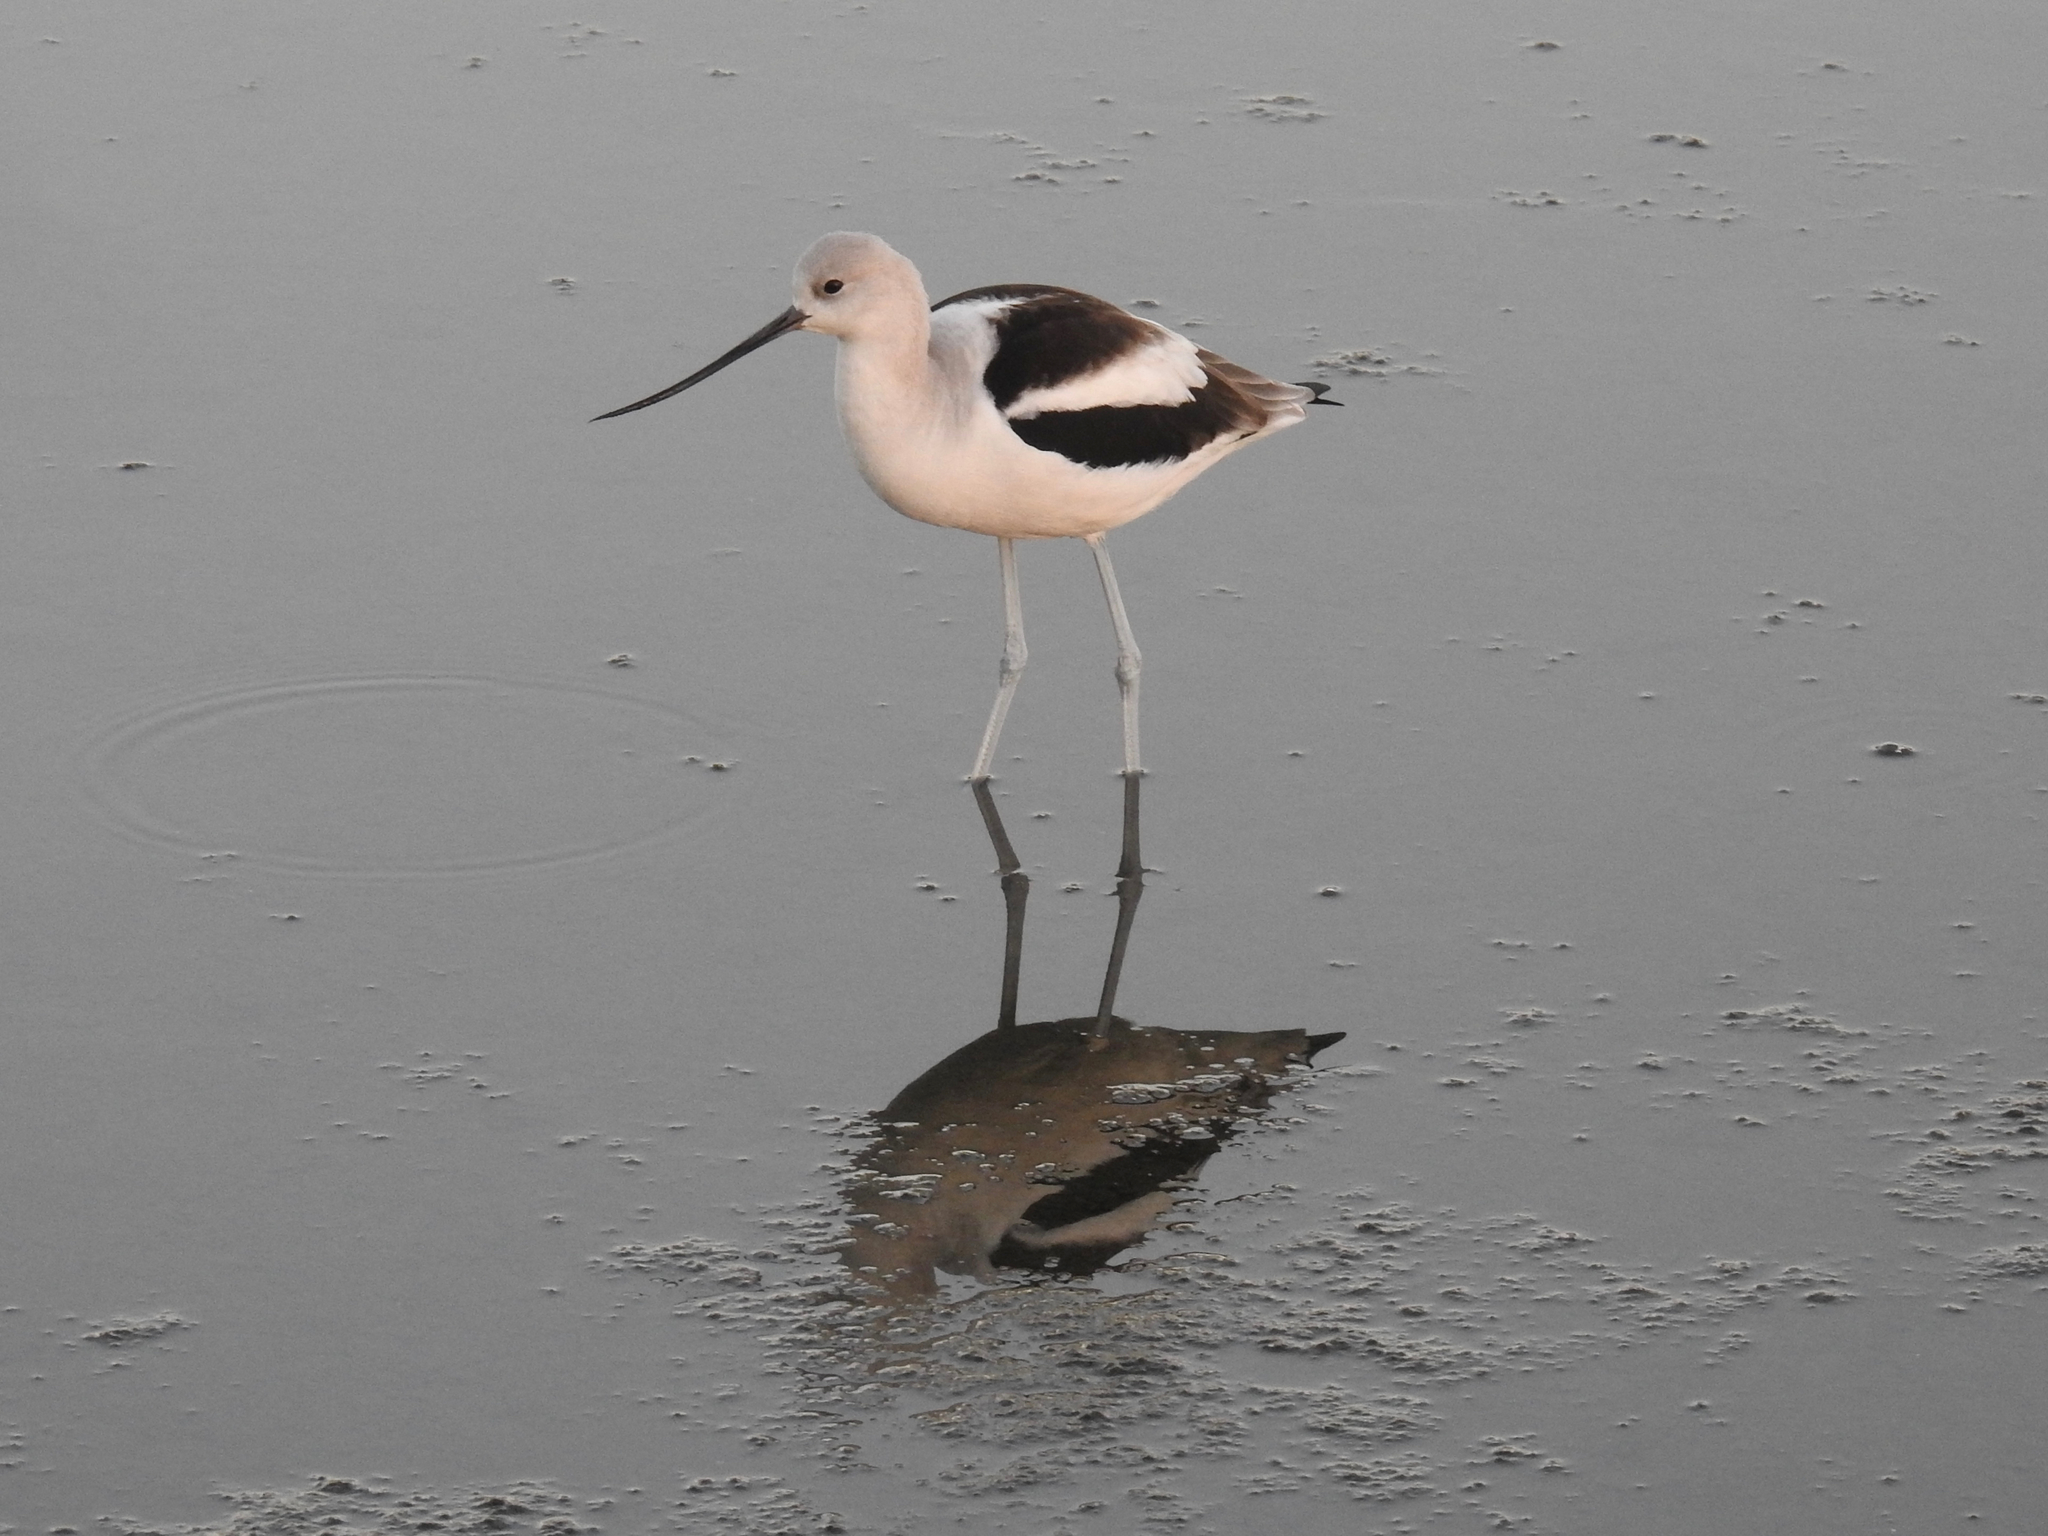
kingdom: Animalia
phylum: Chordata
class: Aves
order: Charadriiformes
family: Recurvirostridae
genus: Recurvirostra
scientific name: Recurvirostra americana
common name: American avocet
